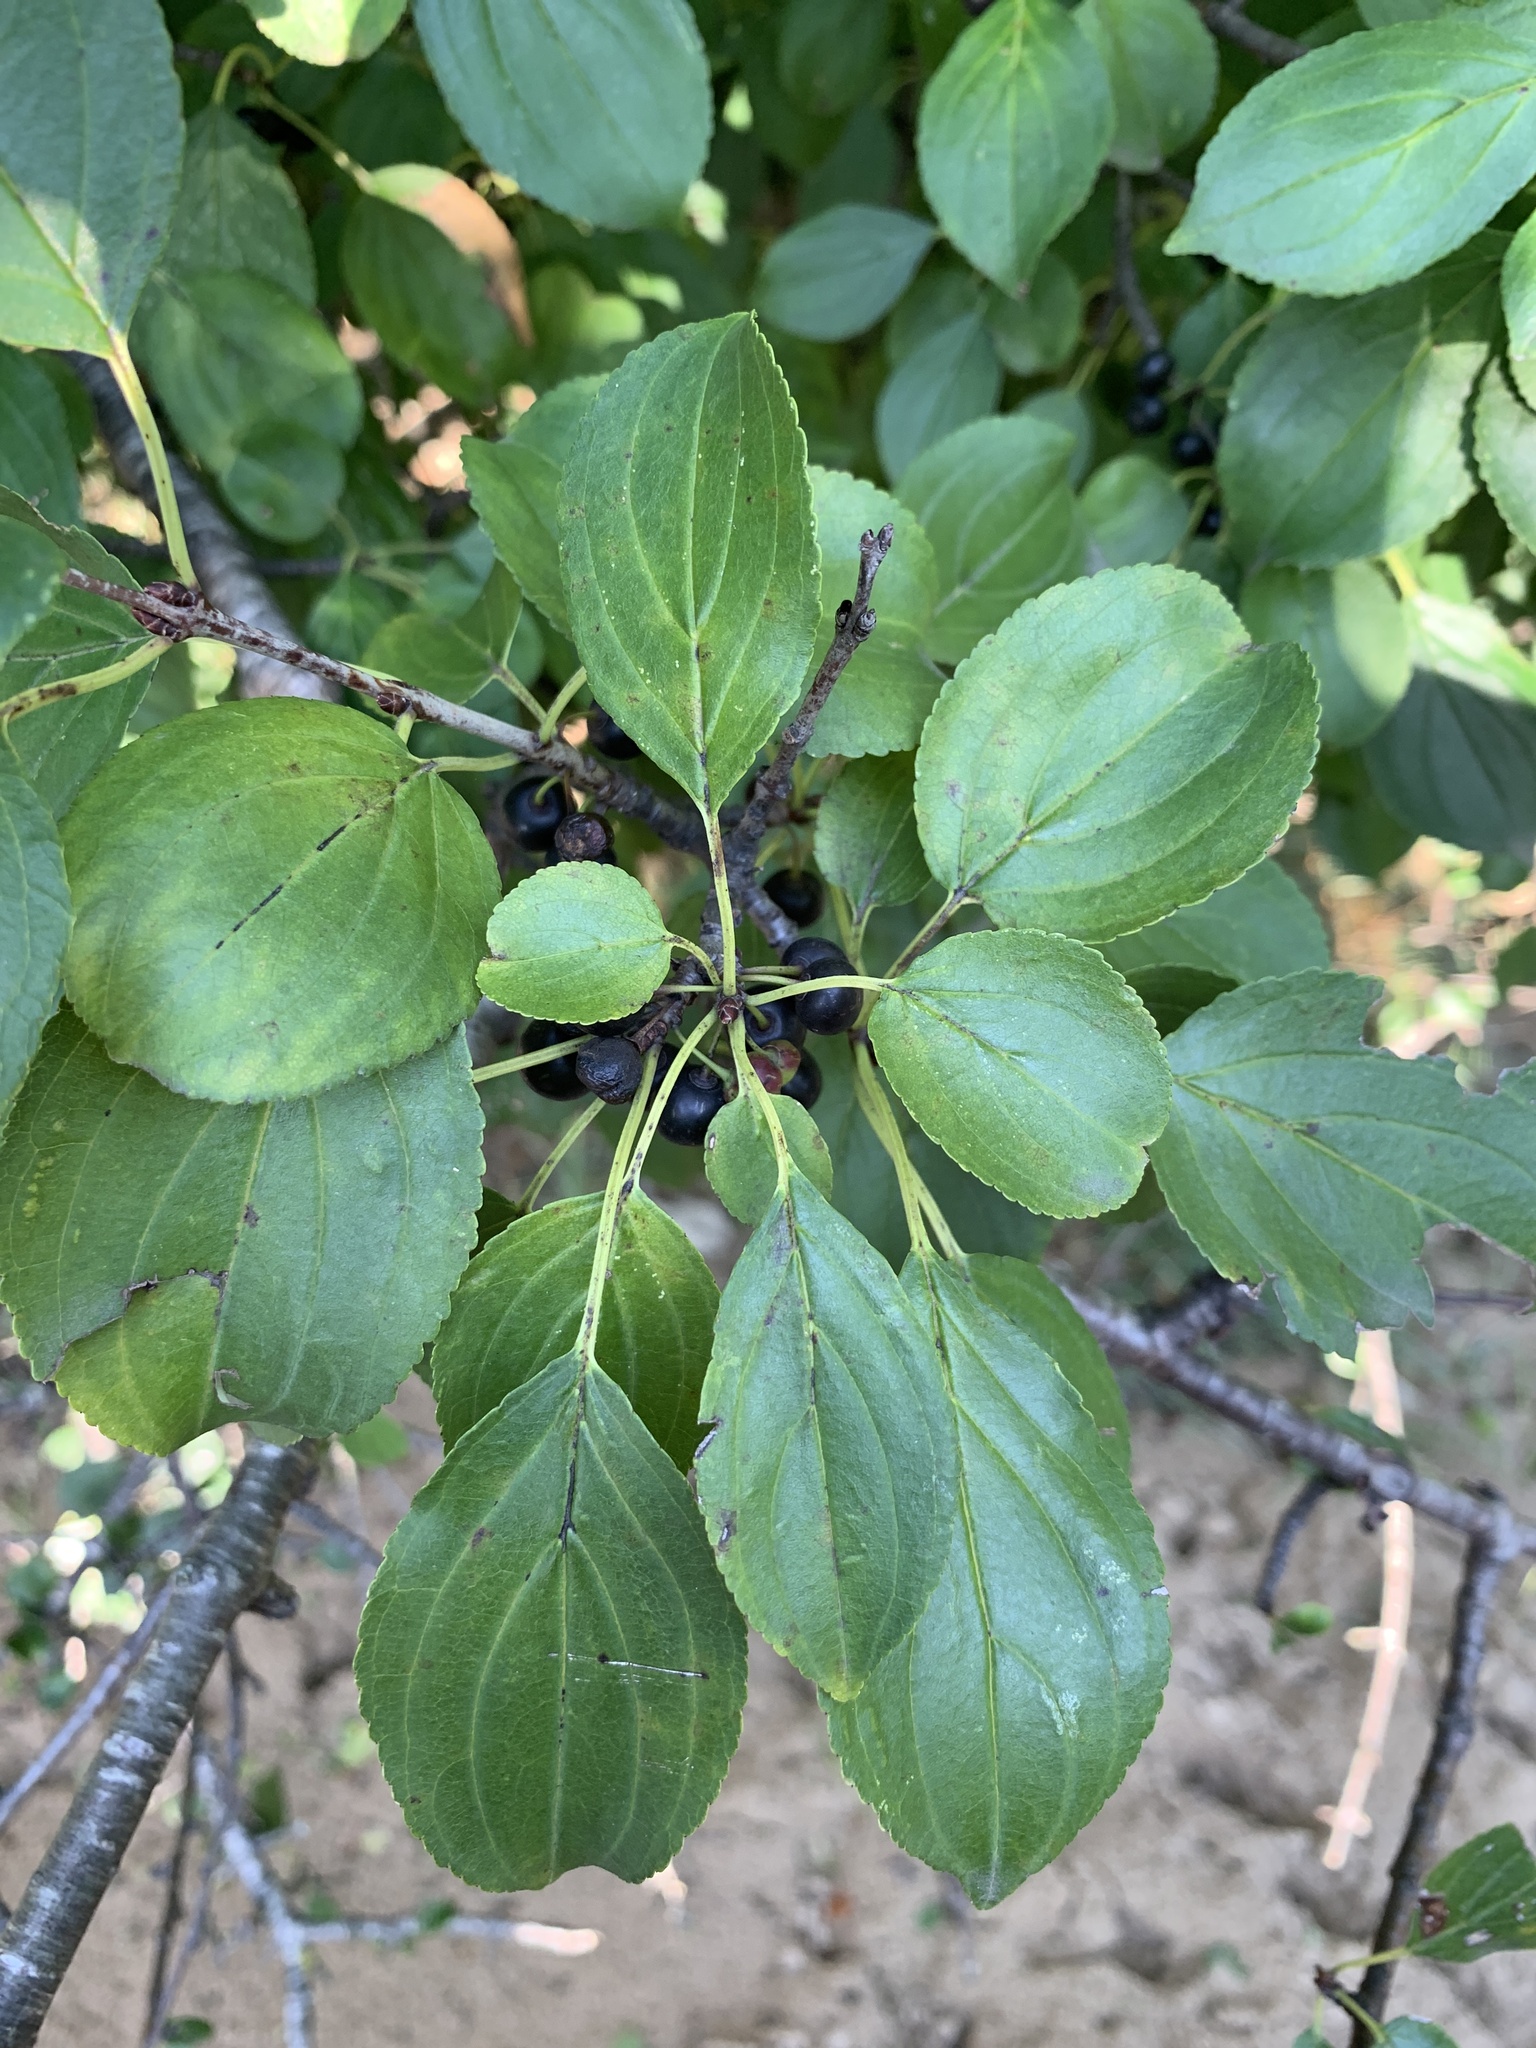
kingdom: Plantae
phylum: Tracheophyta
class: Magnoliopsida
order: Rosales
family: Rhamnaceae
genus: Rhamnus
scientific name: Rhamnus cathartica
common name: Common buckthorn
